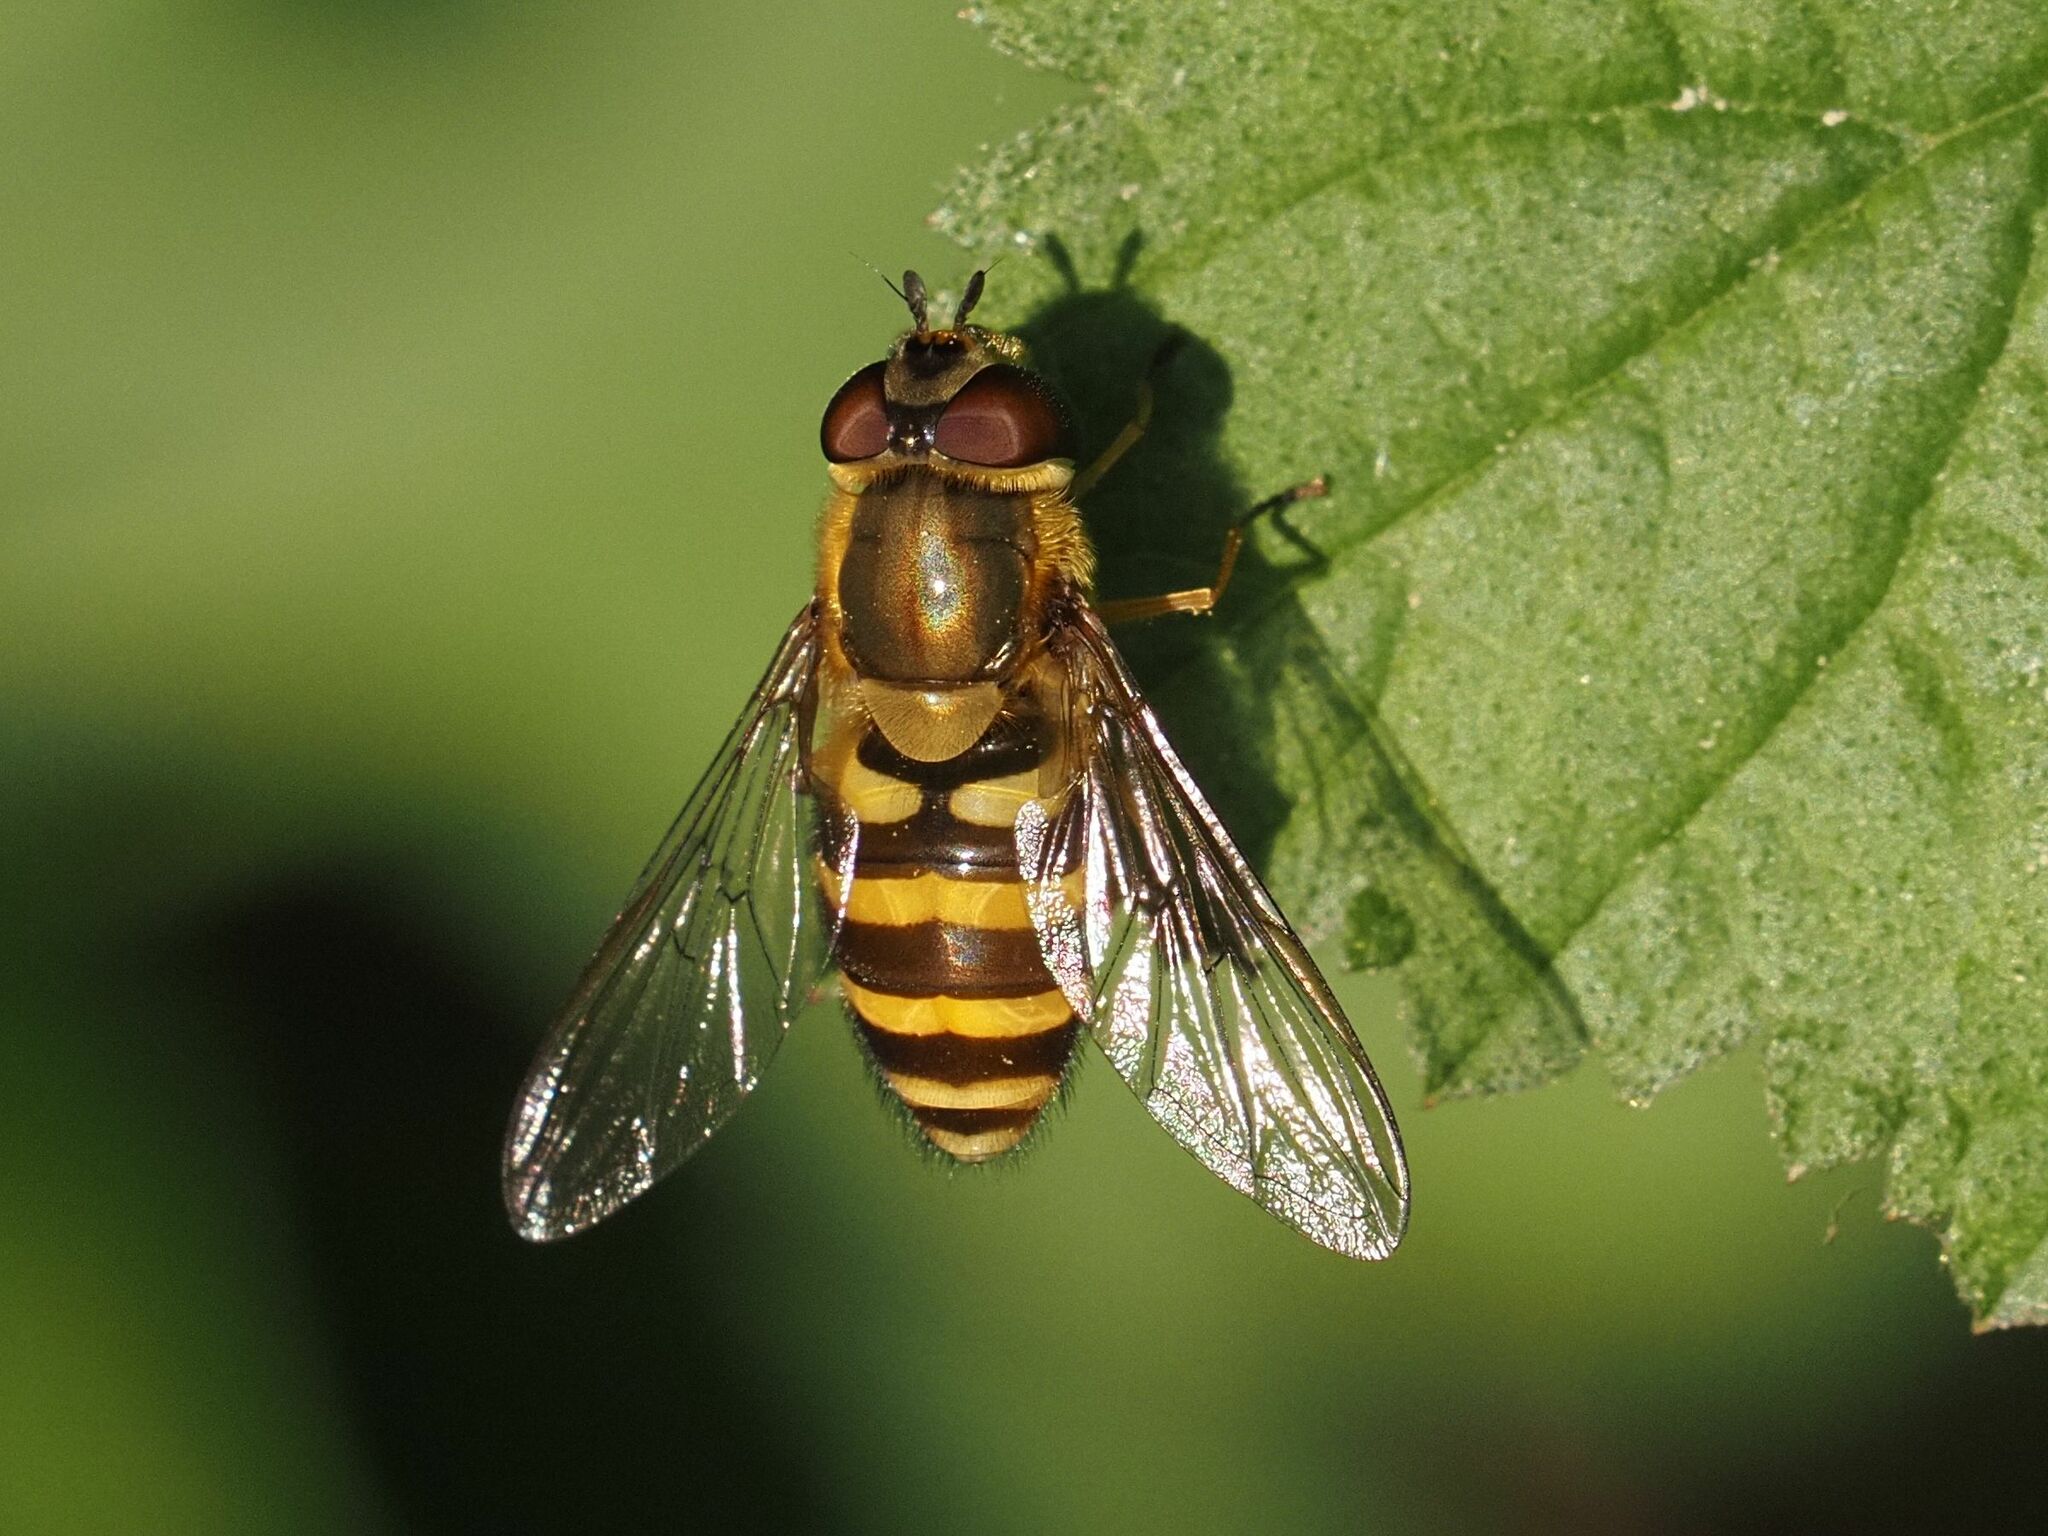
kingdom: Animalia
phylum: Arthropoda
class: Insecta
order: Diptera
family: Syrphidae
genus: Syrphus
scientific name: Syrphus torvus
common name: Hairy-eyed flower fly
